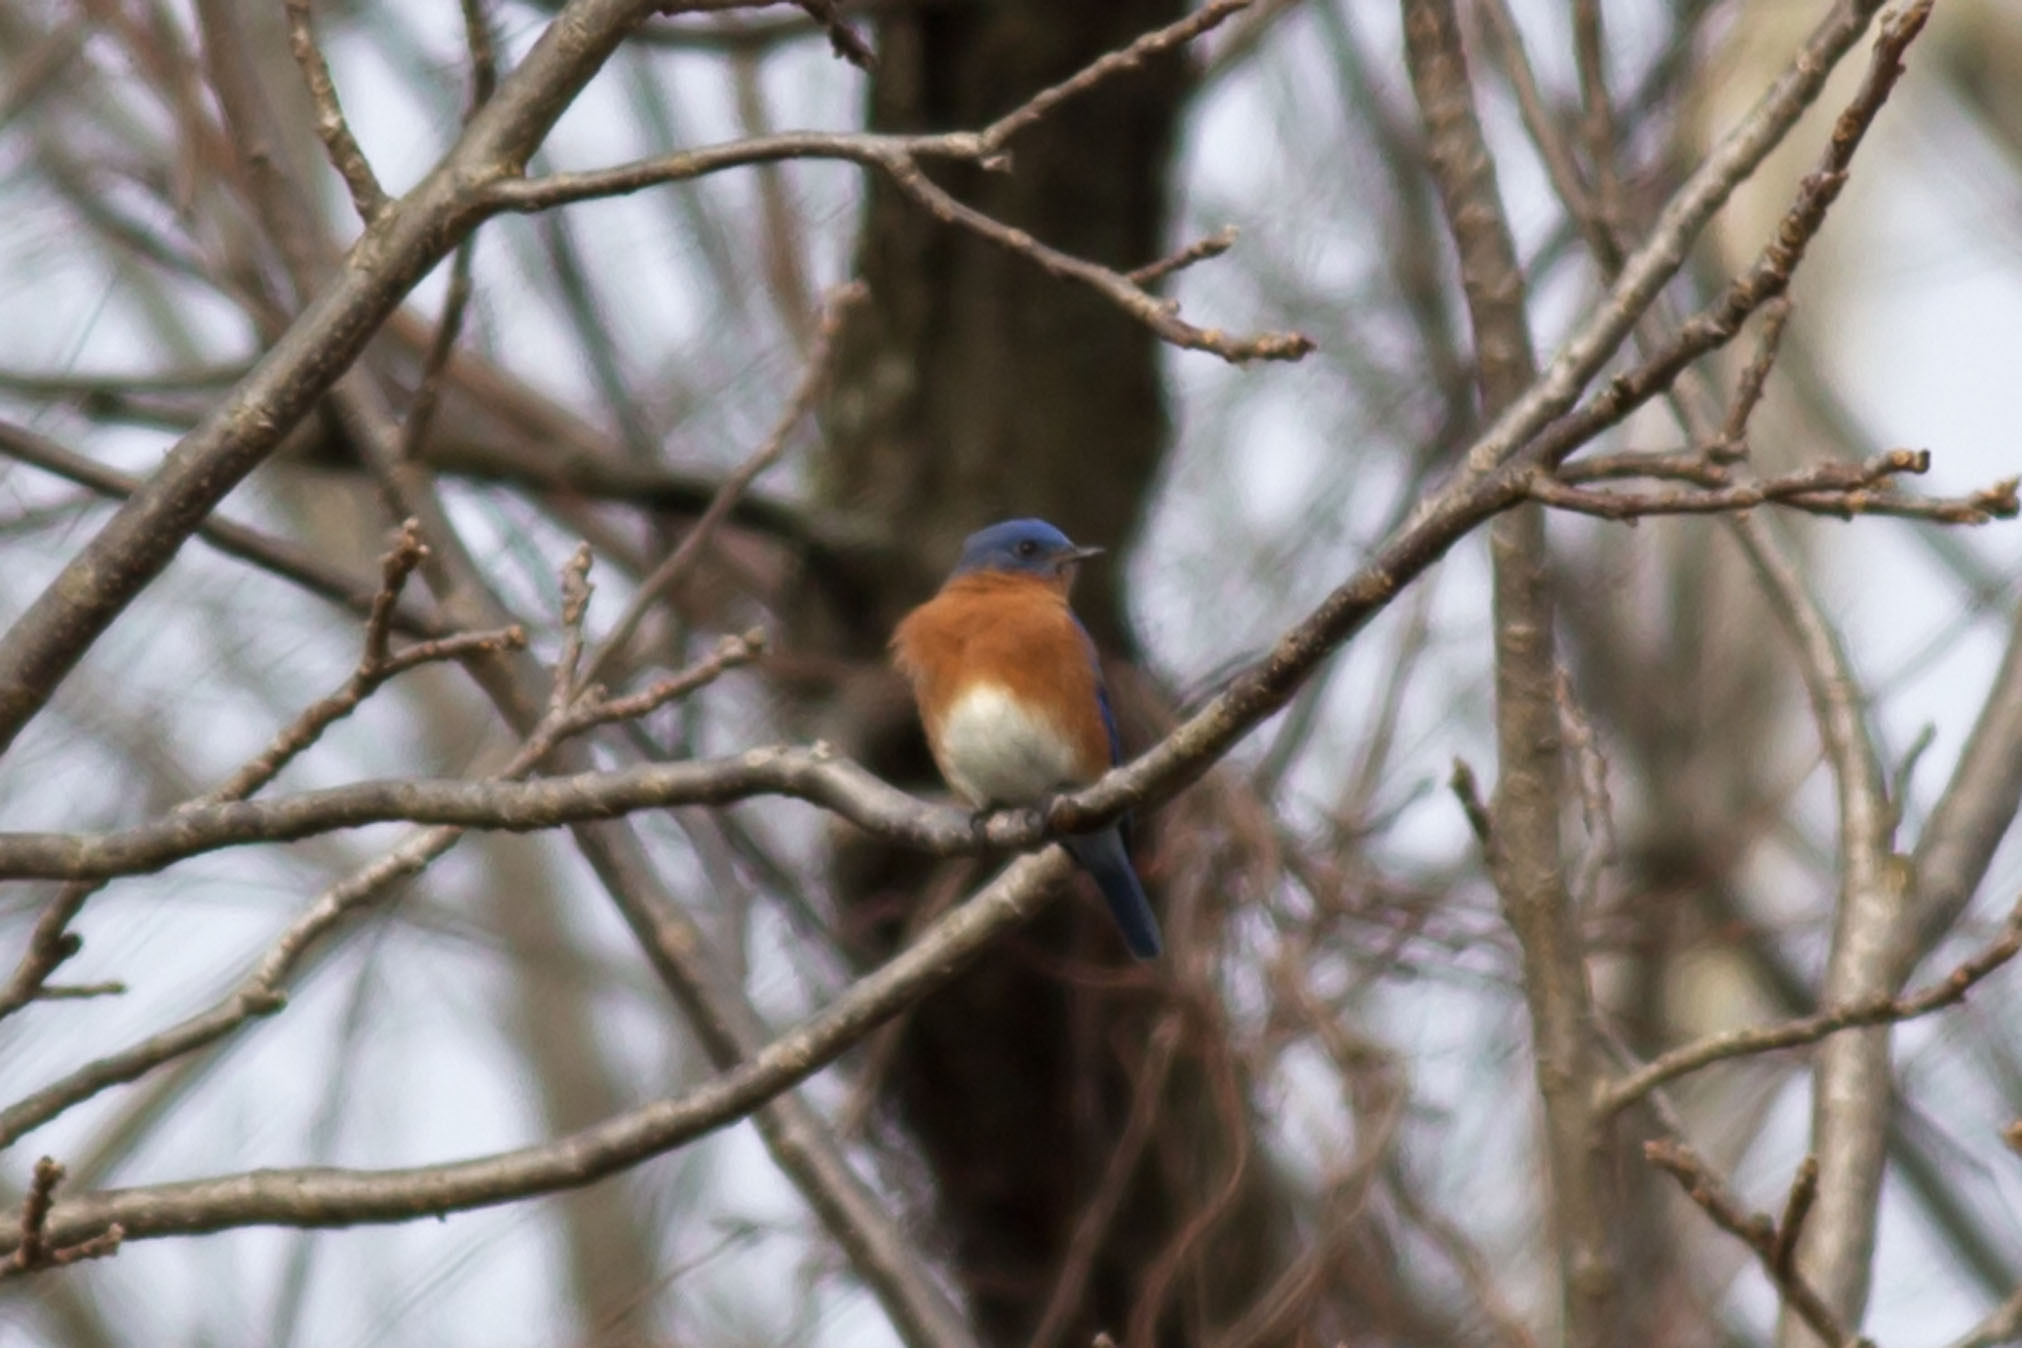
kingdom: Animalia
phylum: Chordata
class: Aves
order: Passeriformes
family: Turdidae
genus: Sialia
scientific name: Sialia sialis
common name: Eastern bluebird
